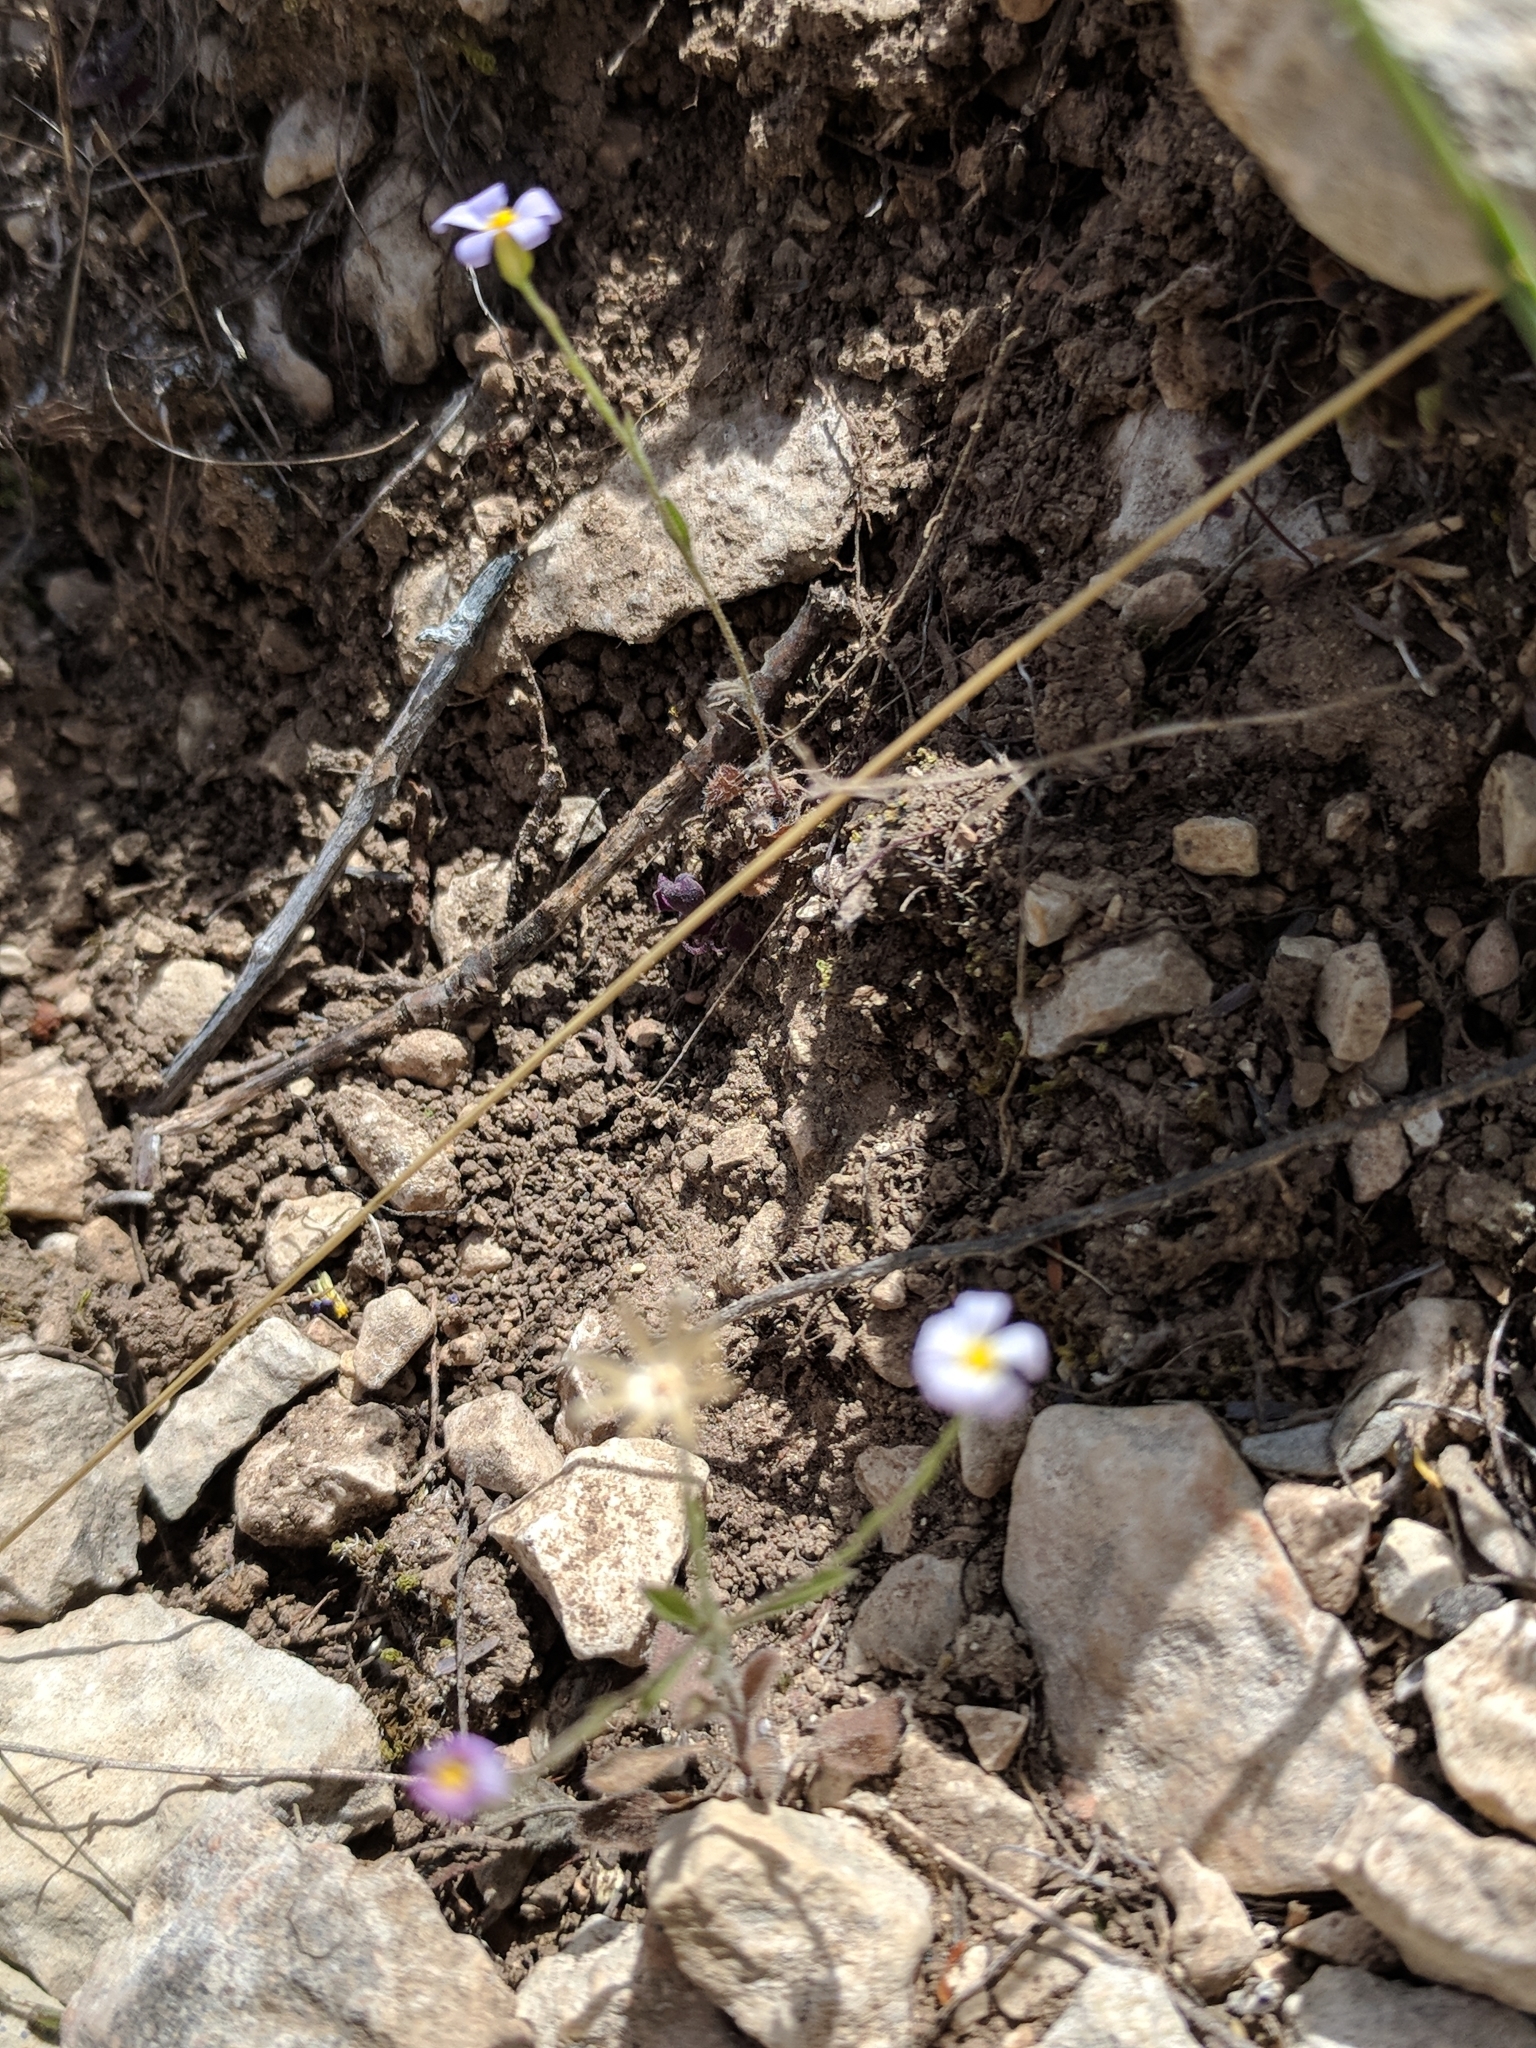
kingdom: Plantae
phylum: Tracheophyta
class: Magnoliopsida
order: Asterales
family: Asteraceae
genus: Chaetopappa
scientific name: Chaetopappa bellidifolia
